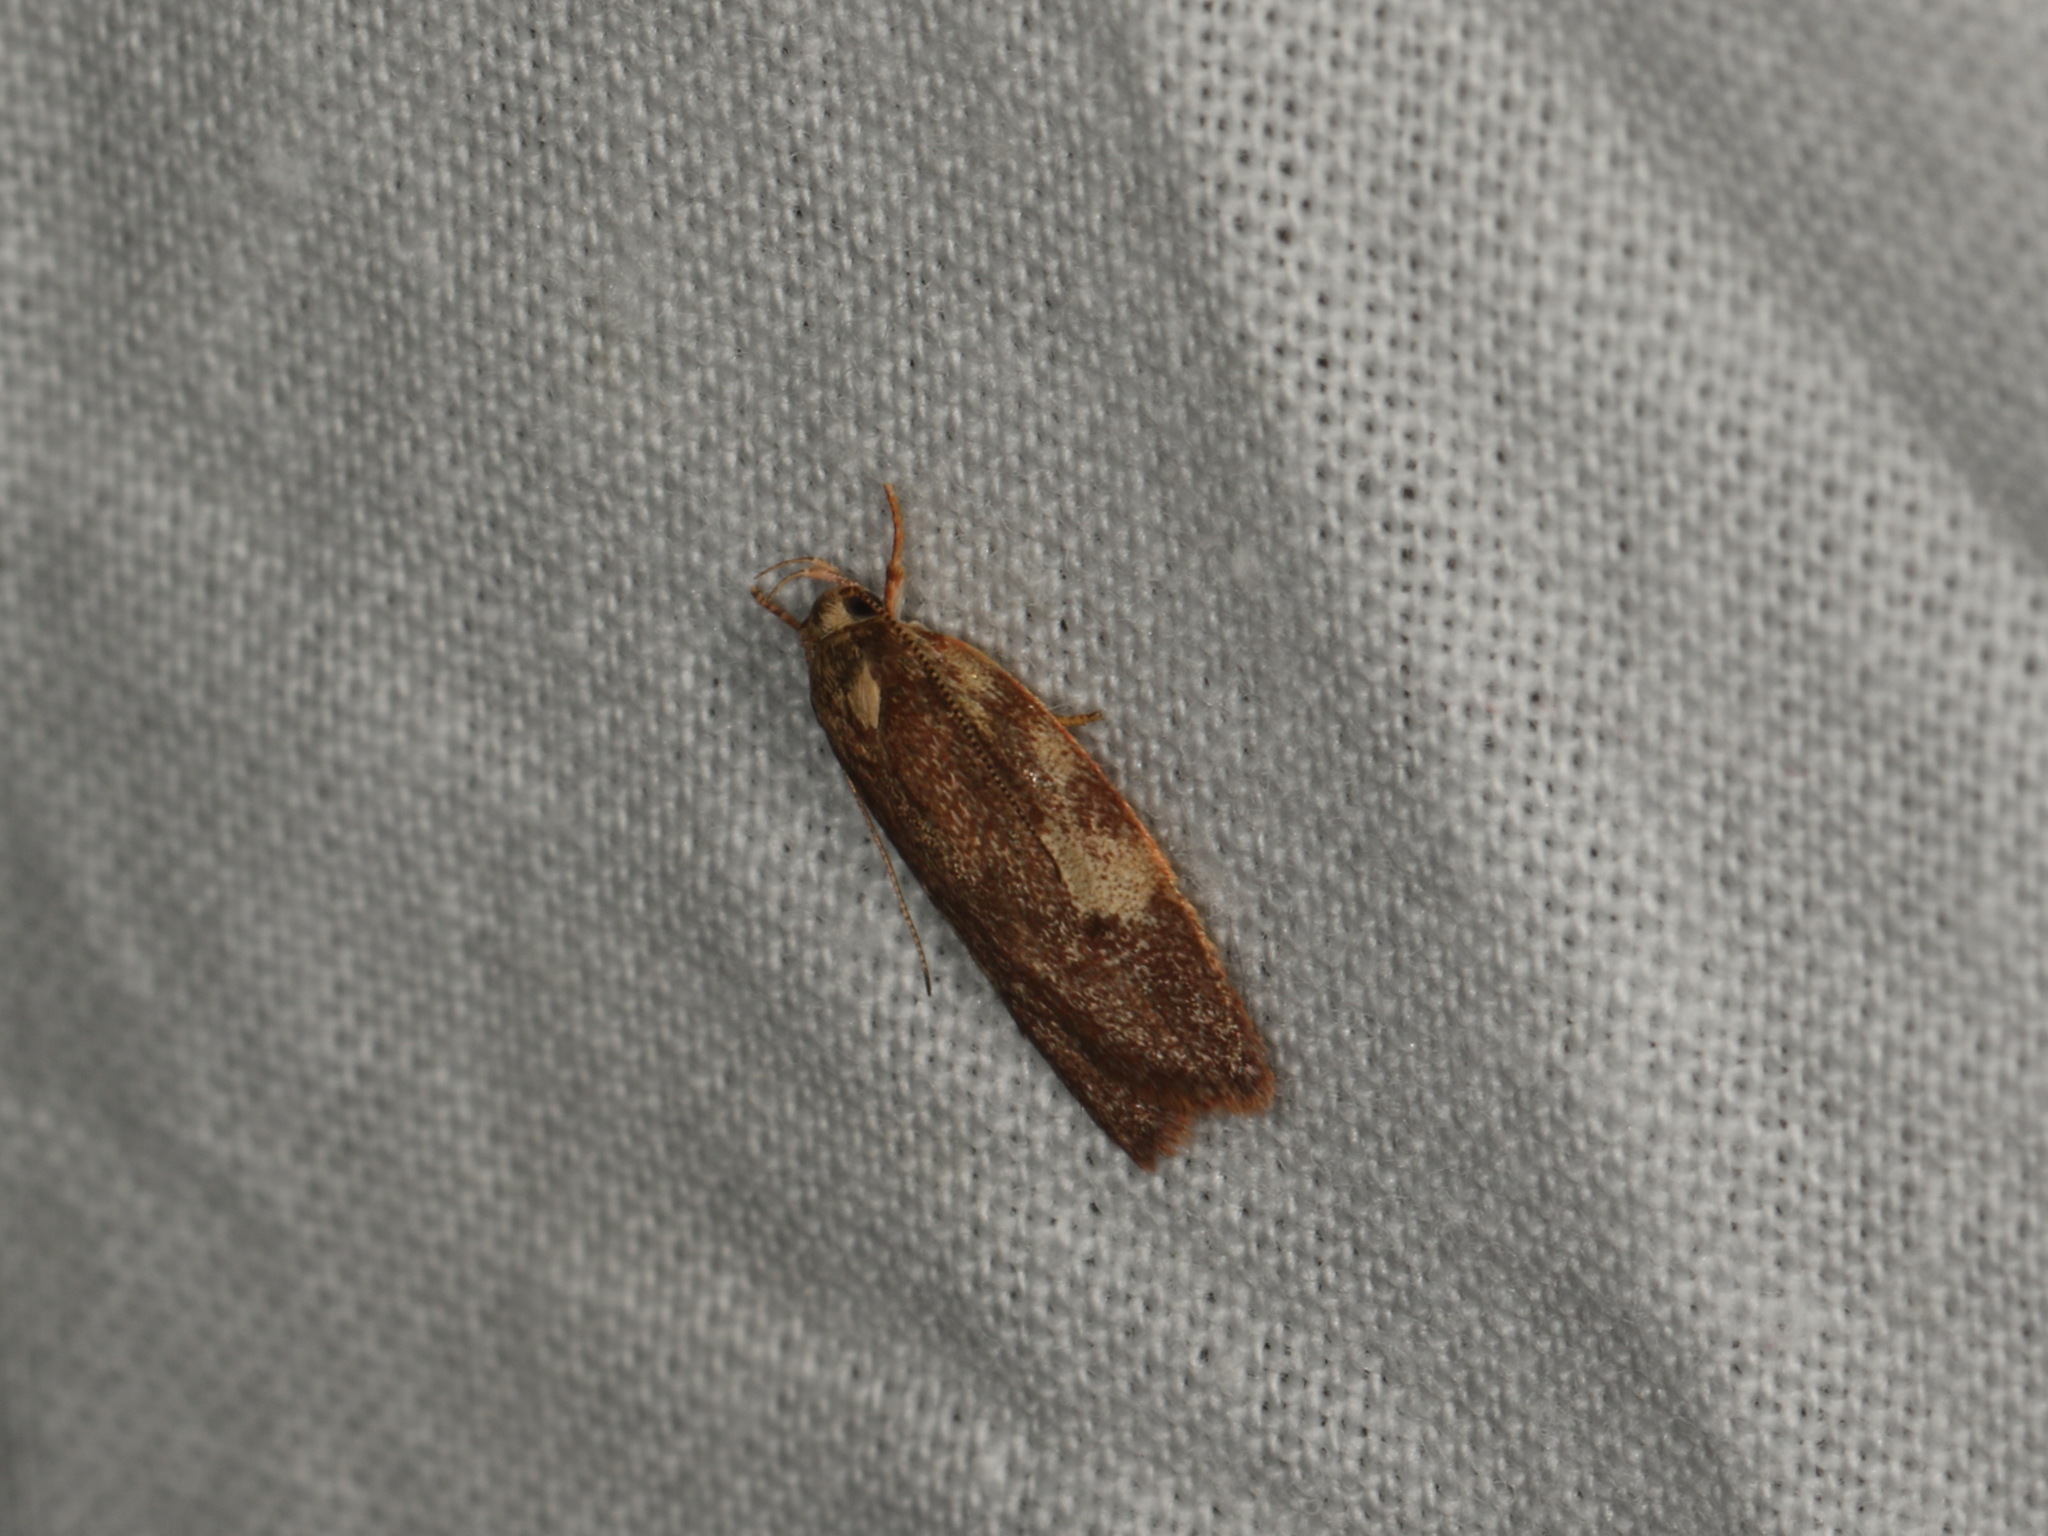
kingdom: Animalia
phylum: Arthropoda
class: Insecta
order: Lepidoptera
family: Oecophoridae
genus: Syringoseca
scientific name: Syringoseca mimica
